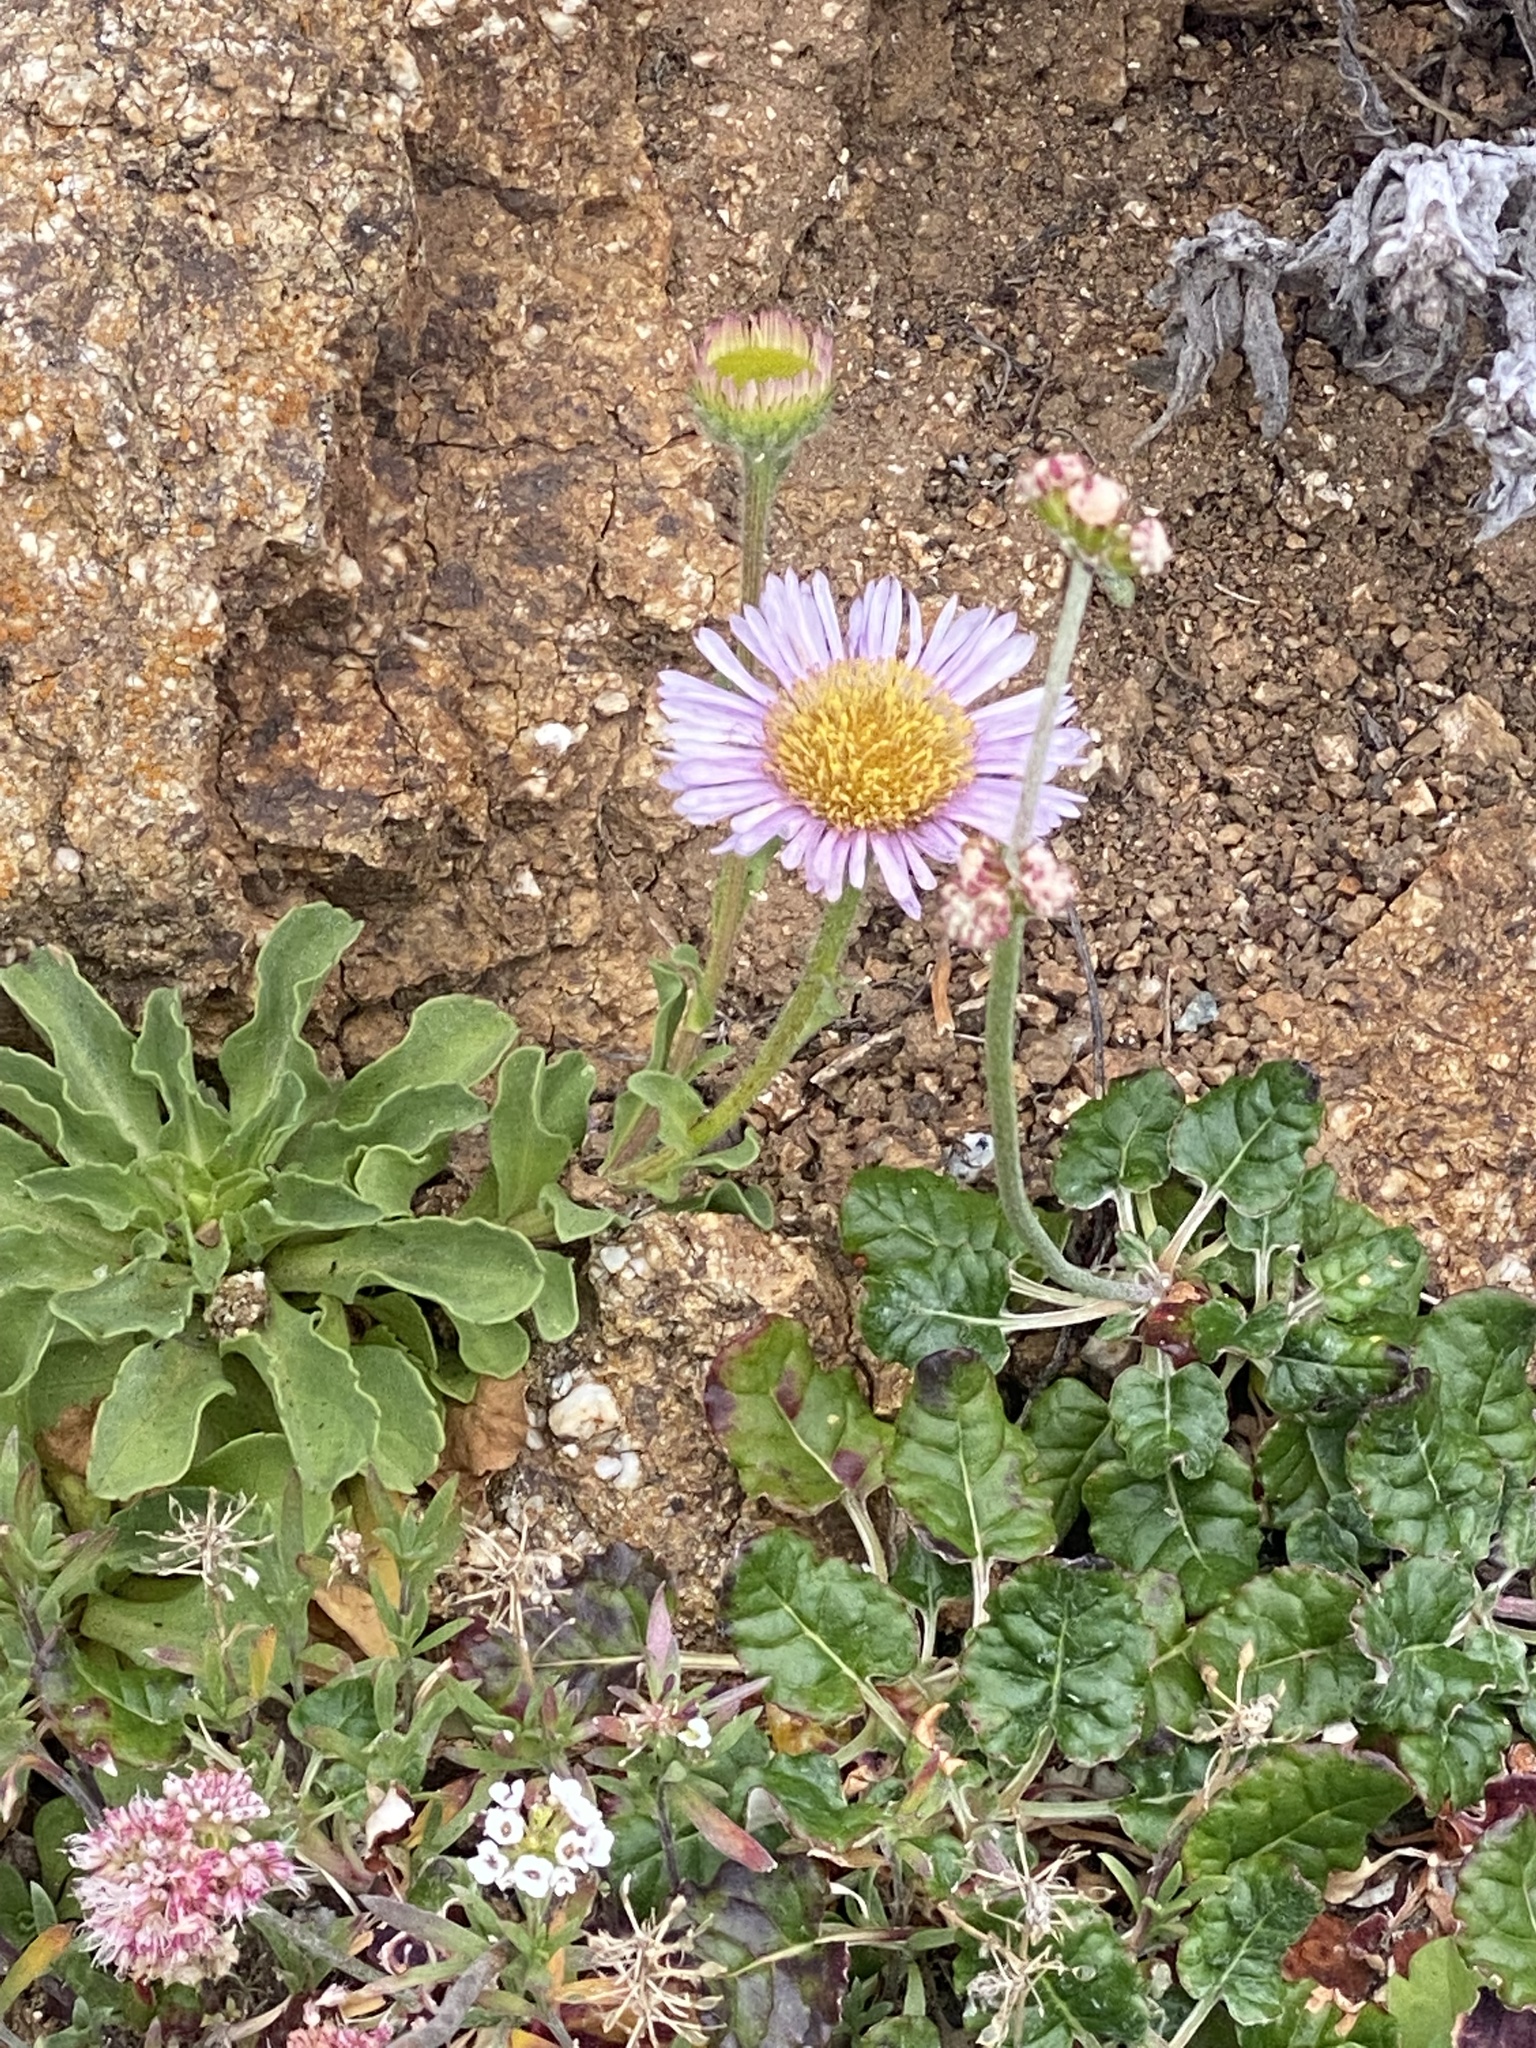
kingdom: Plantae
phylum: Tracheophyta
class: Magnoliopsida
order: Asterales
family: Asteraceae
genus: Erigeron
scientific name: Erigeron glaucus
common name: Seaside daisy
